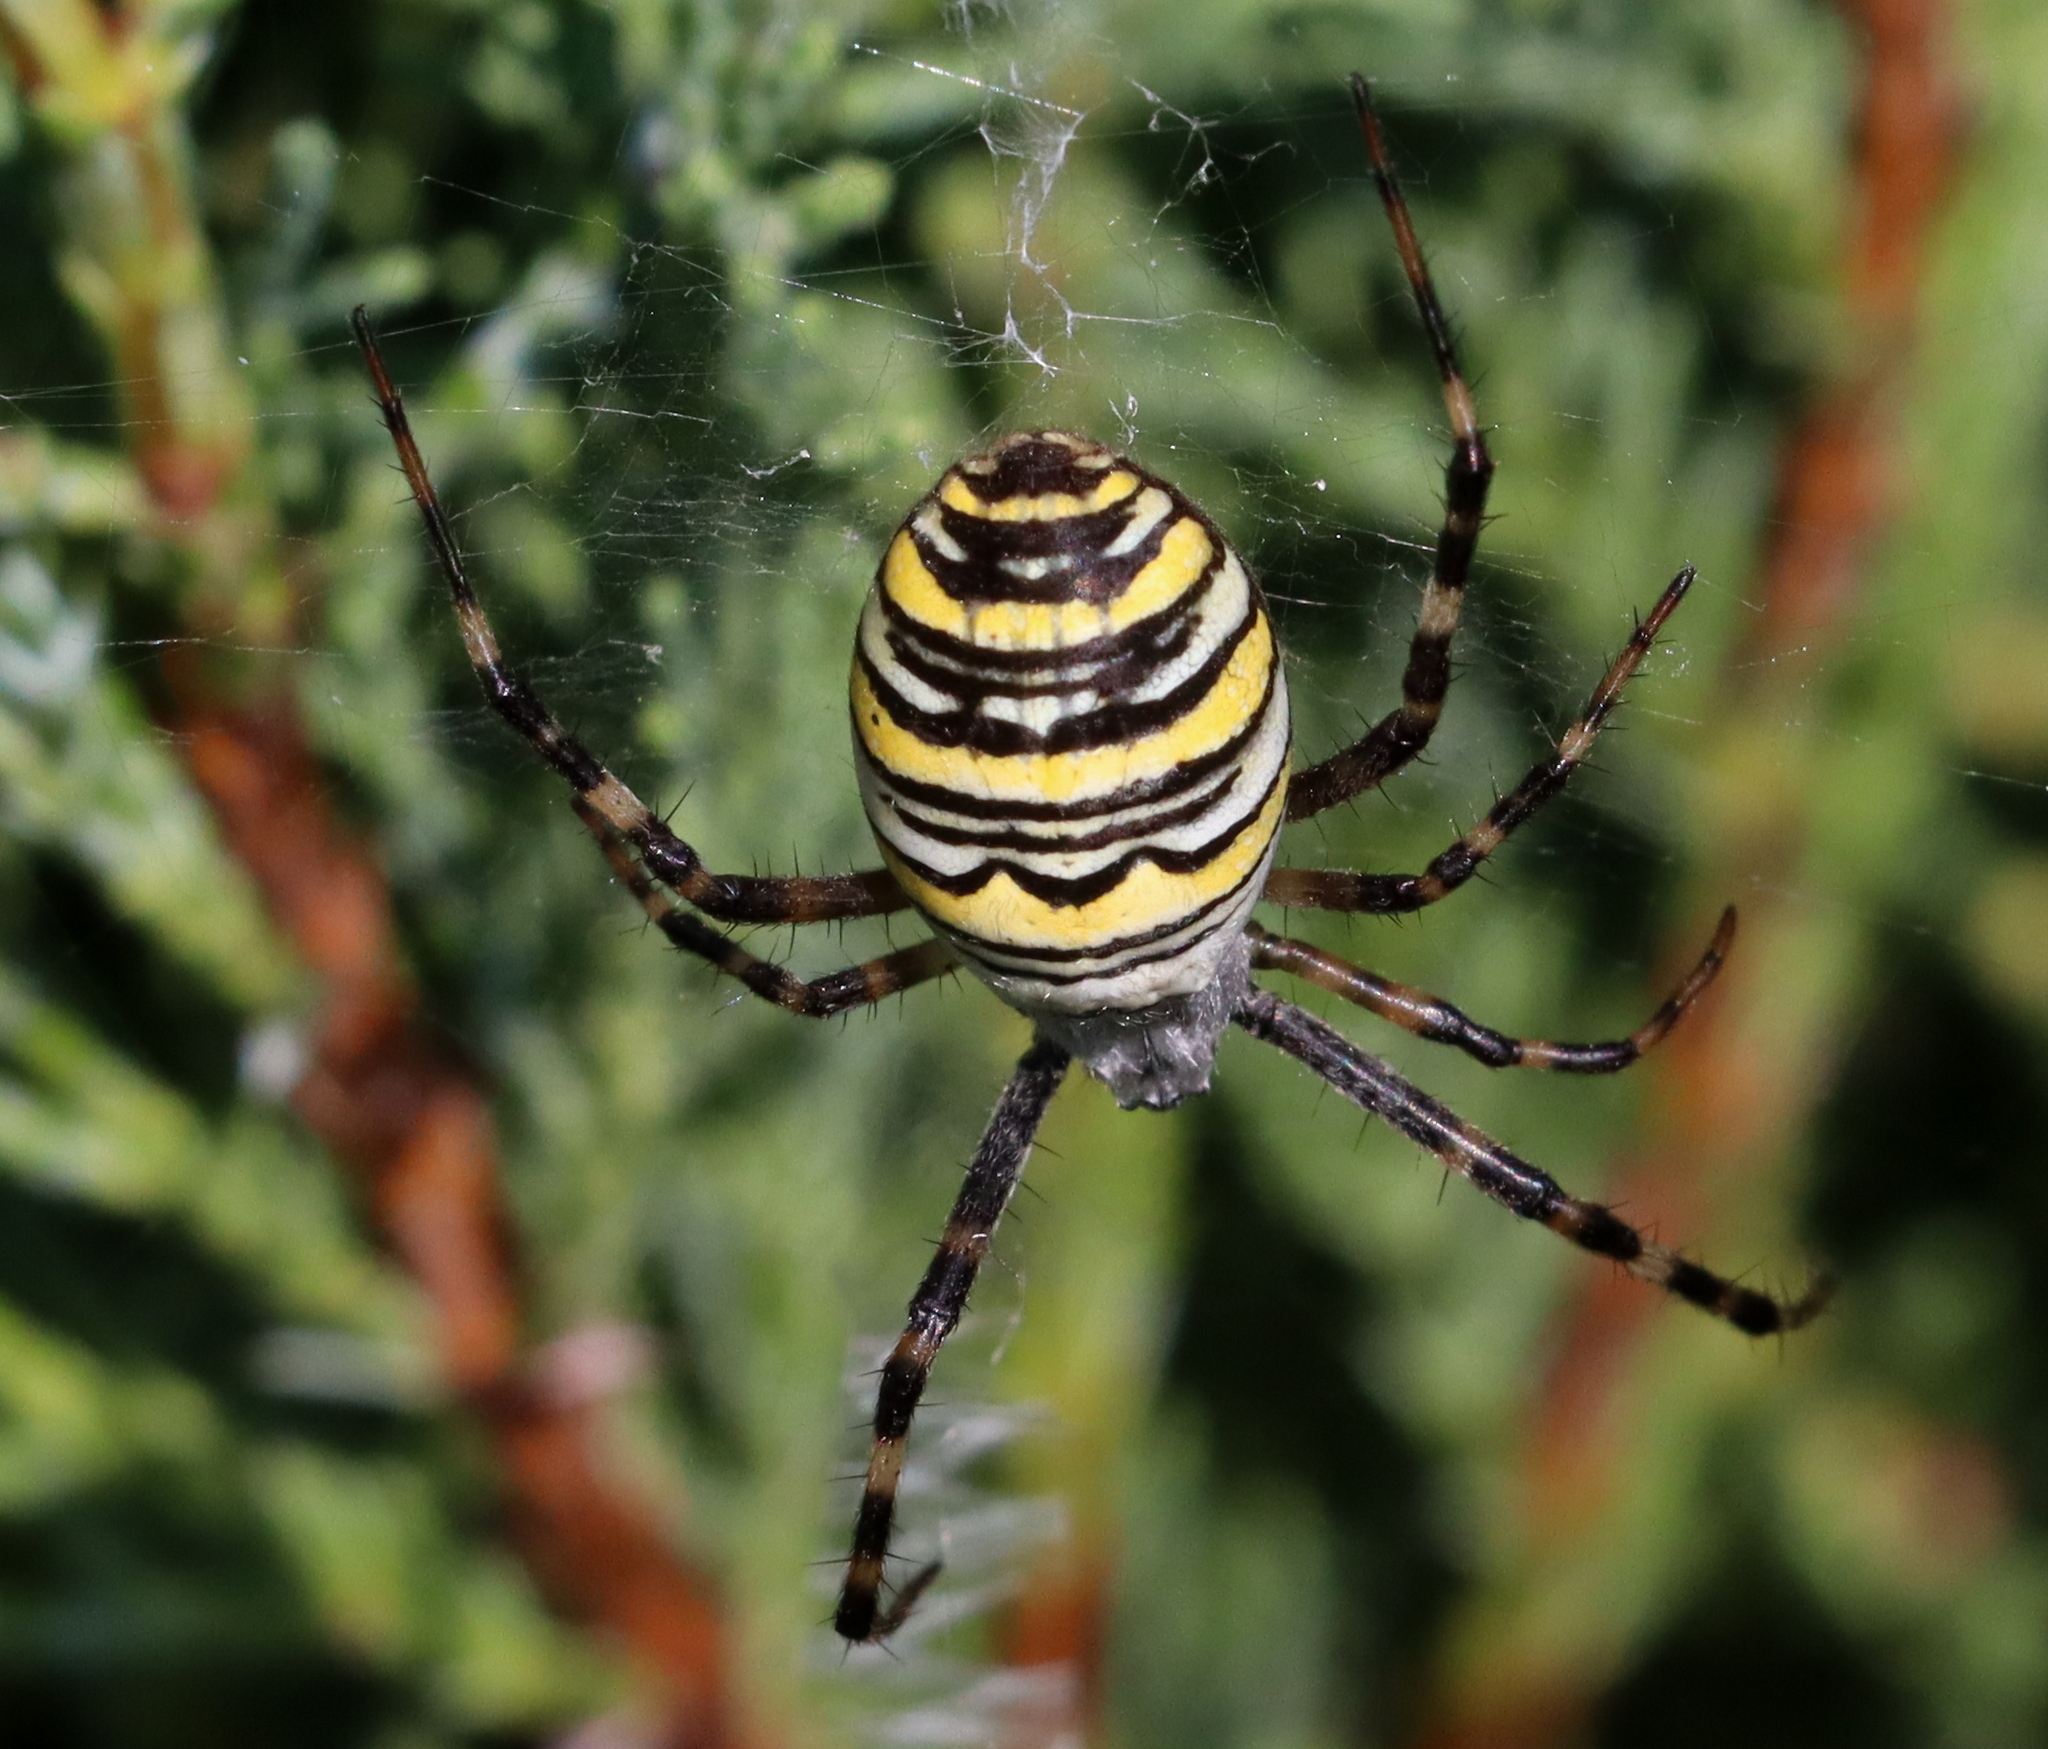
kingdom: Animalia
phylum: Arthropoda
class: Arachnida
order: Araneae
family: Araneidae
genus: Argiope
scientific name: Argiope bruennichi
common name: Wasp spider
